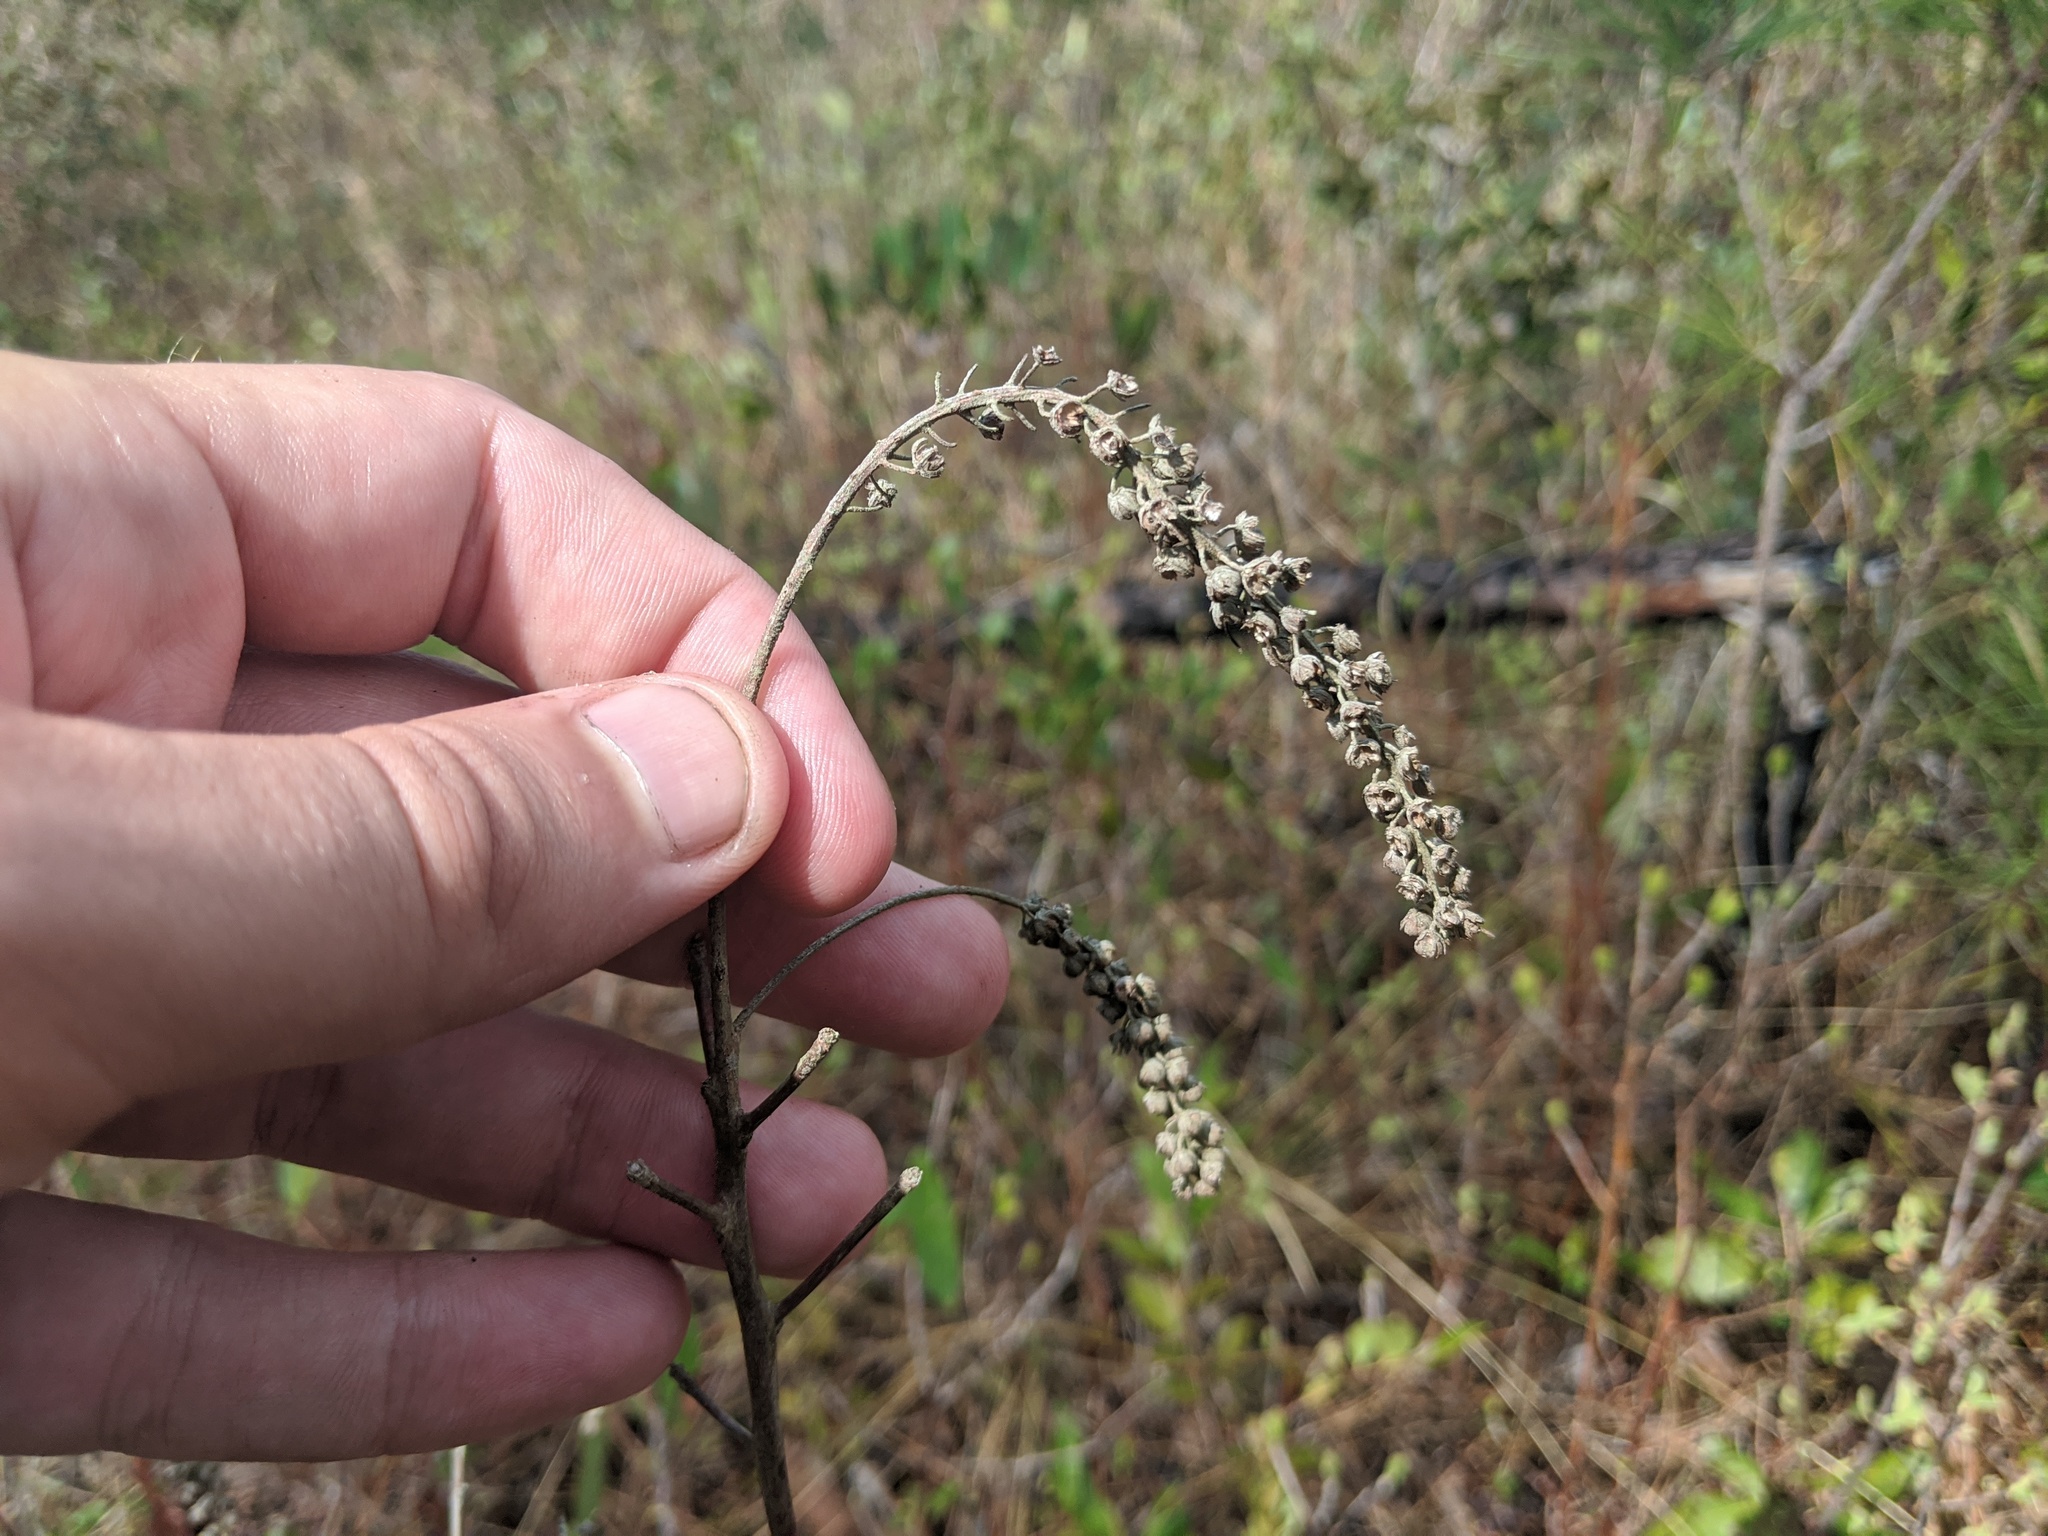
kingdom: Plantae
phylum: Tracheophyta
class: Magnoliopsida
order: Ericales
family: Clethraceae
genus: Clethra
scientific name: Clethra alnifolia
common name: Sweet pepperbush
